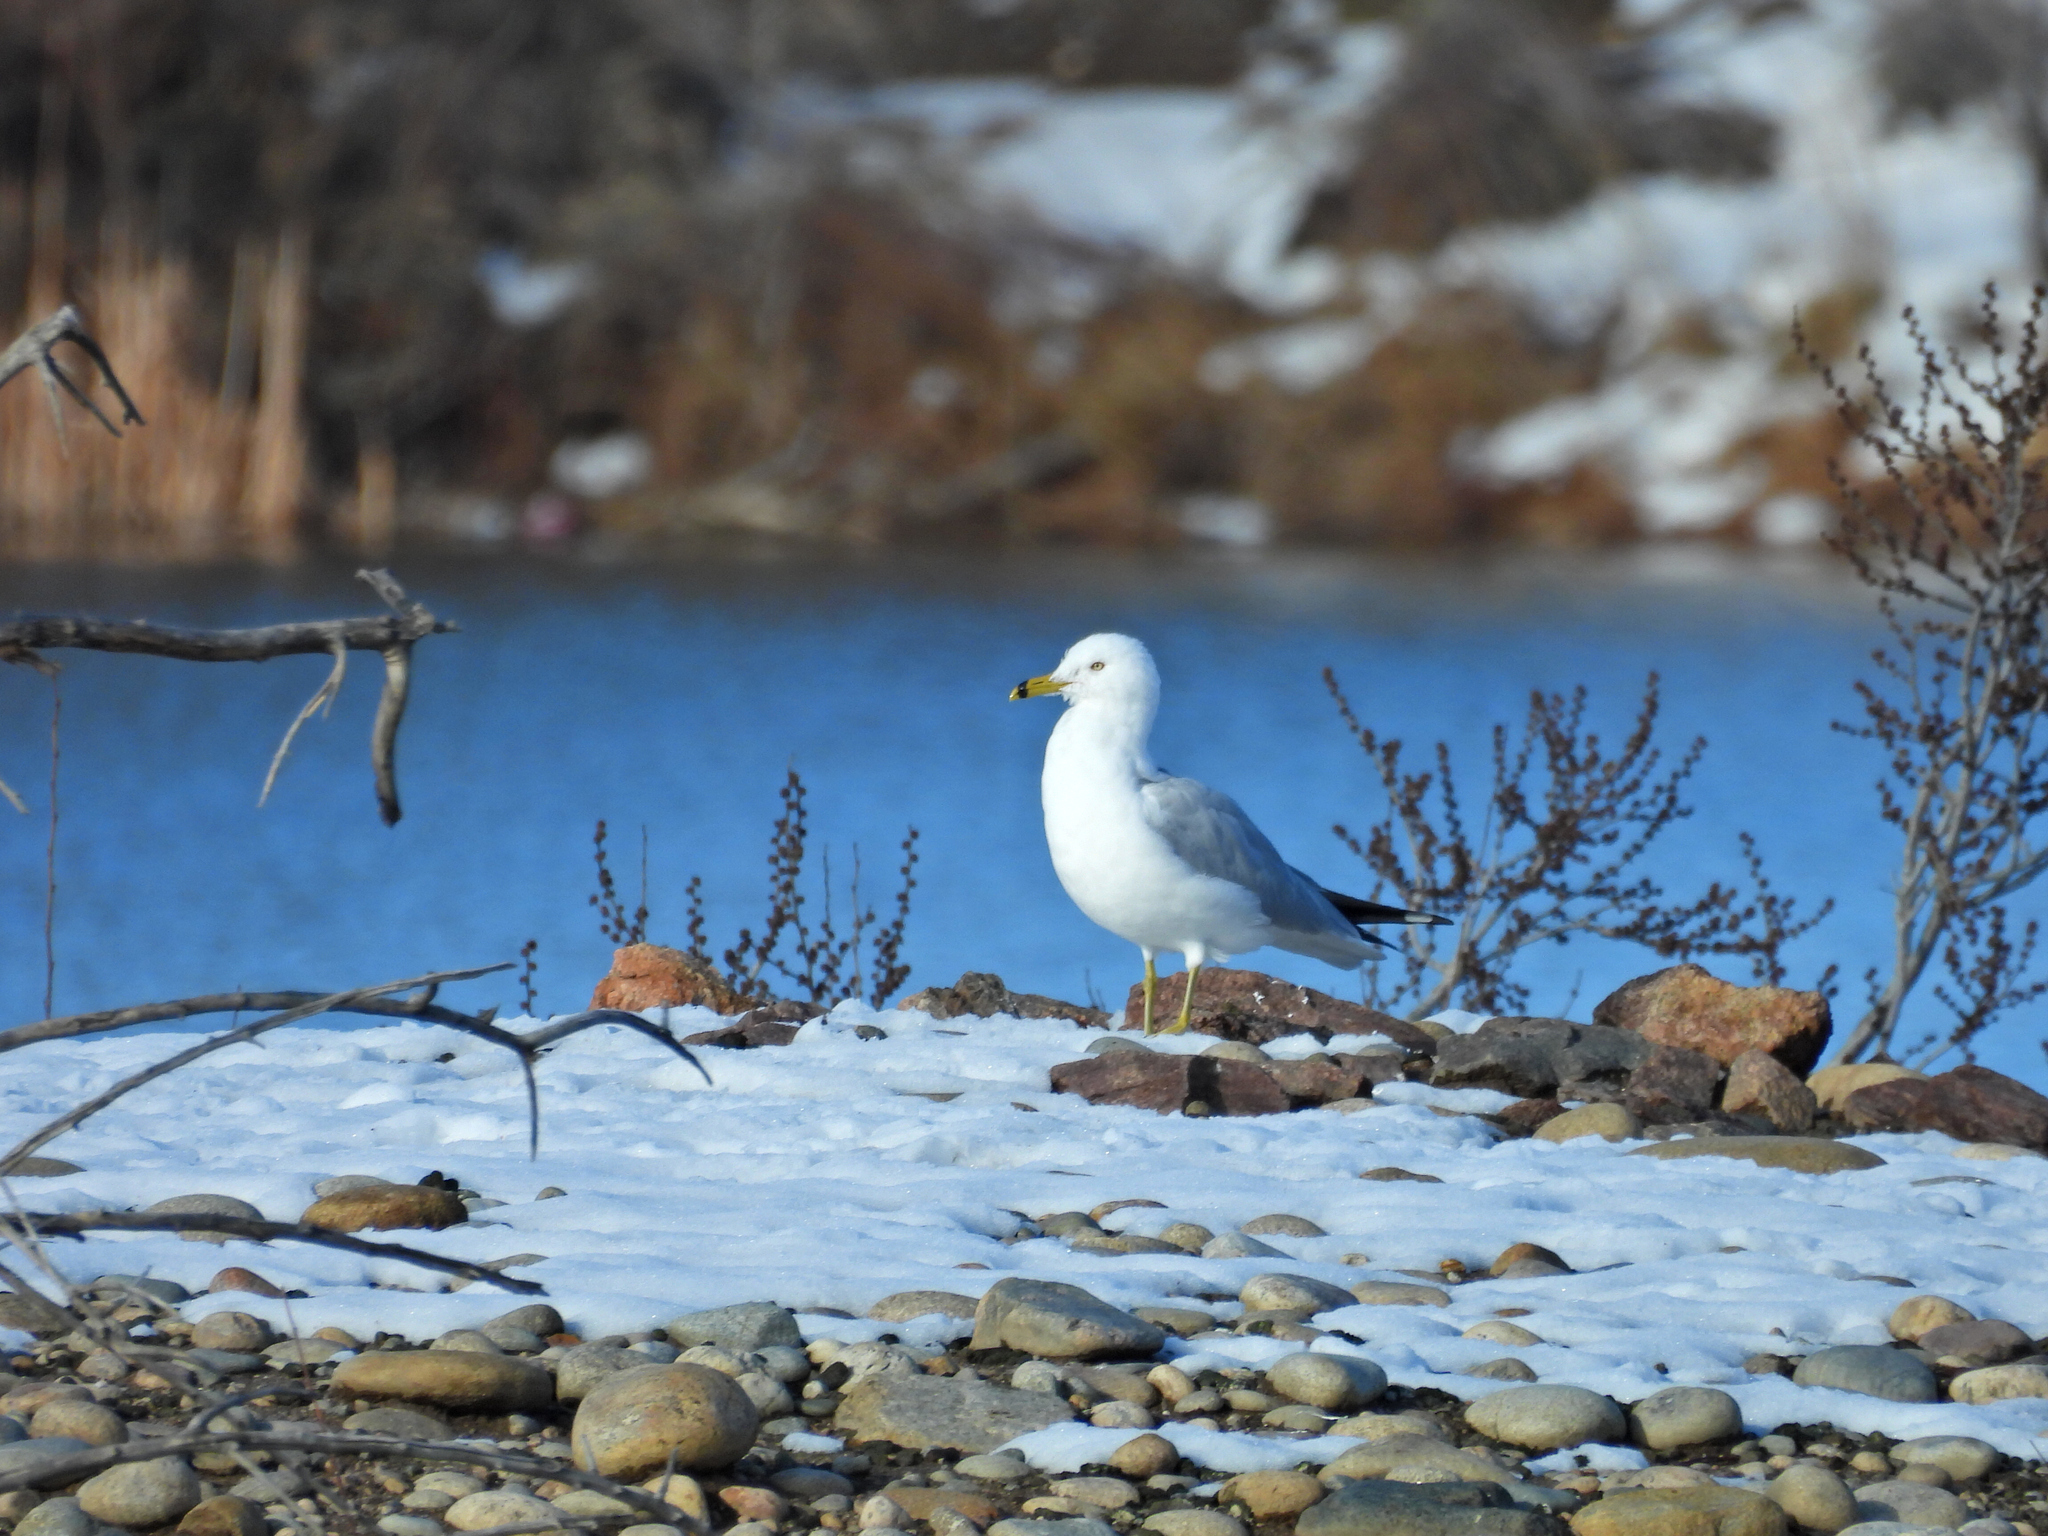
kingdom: Animalia
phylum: Chordata
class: Aves
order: Charadriiformes
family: Laridae
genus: Larus
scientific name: Larus delawarensis
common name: Ring-billed gull
